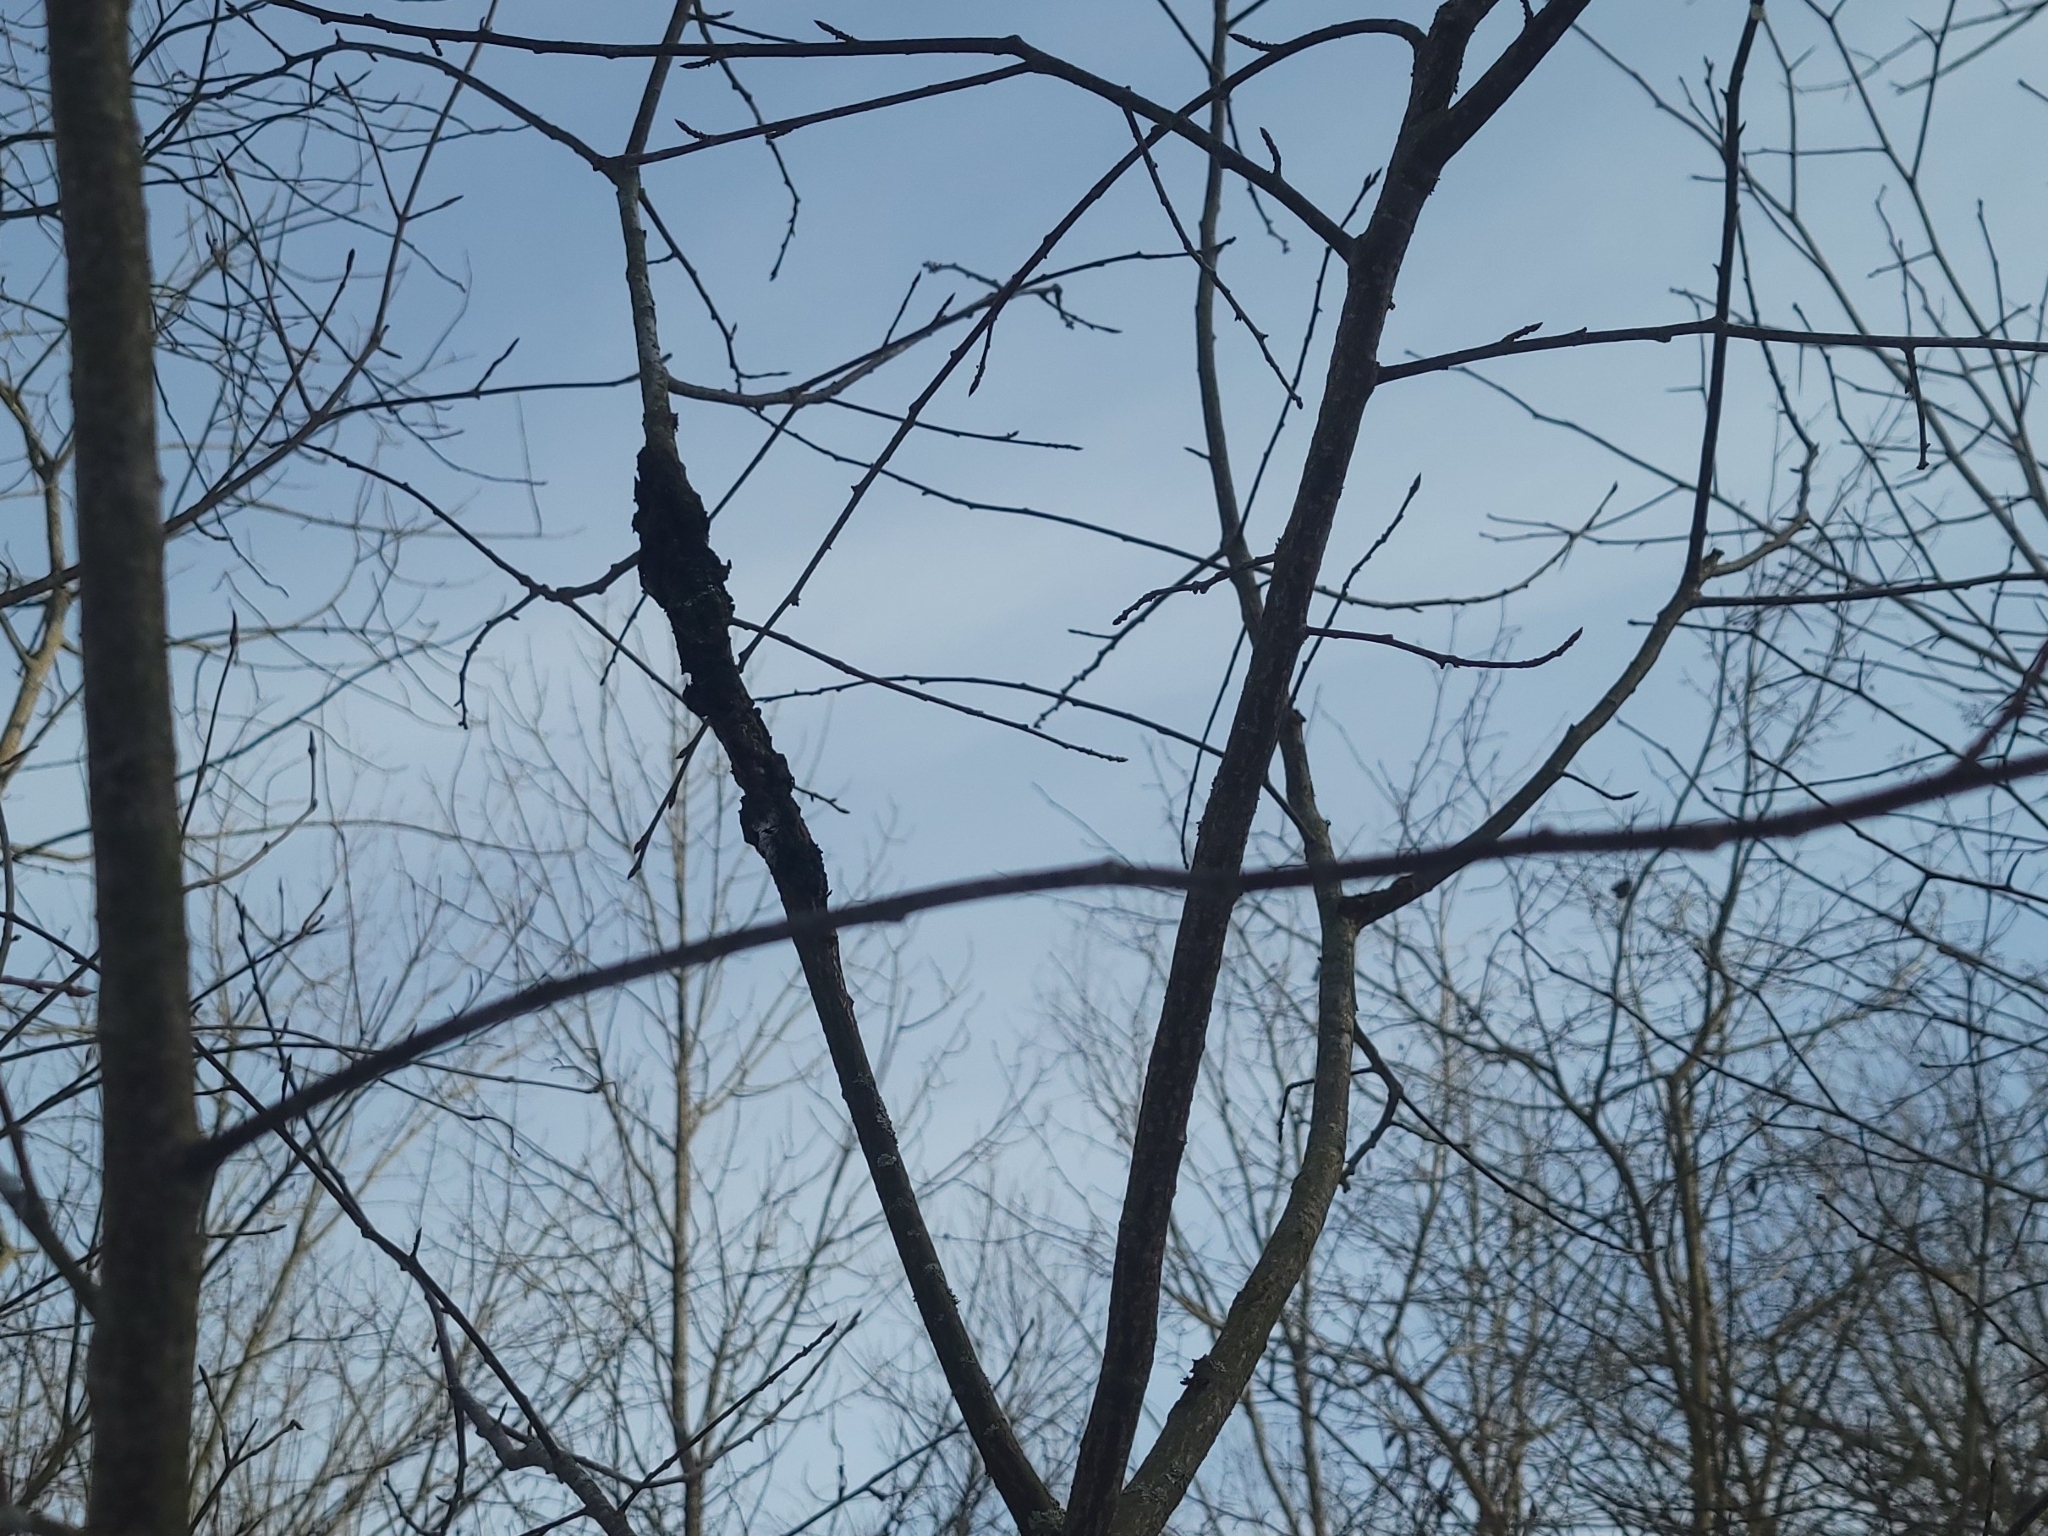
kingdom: Fungi
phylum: Ascomycota
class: Dothideomycetes
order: Venturiales
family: Venturiaceae
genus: Apiosporina
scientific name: Apiosporina morbosa
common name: Black knot
